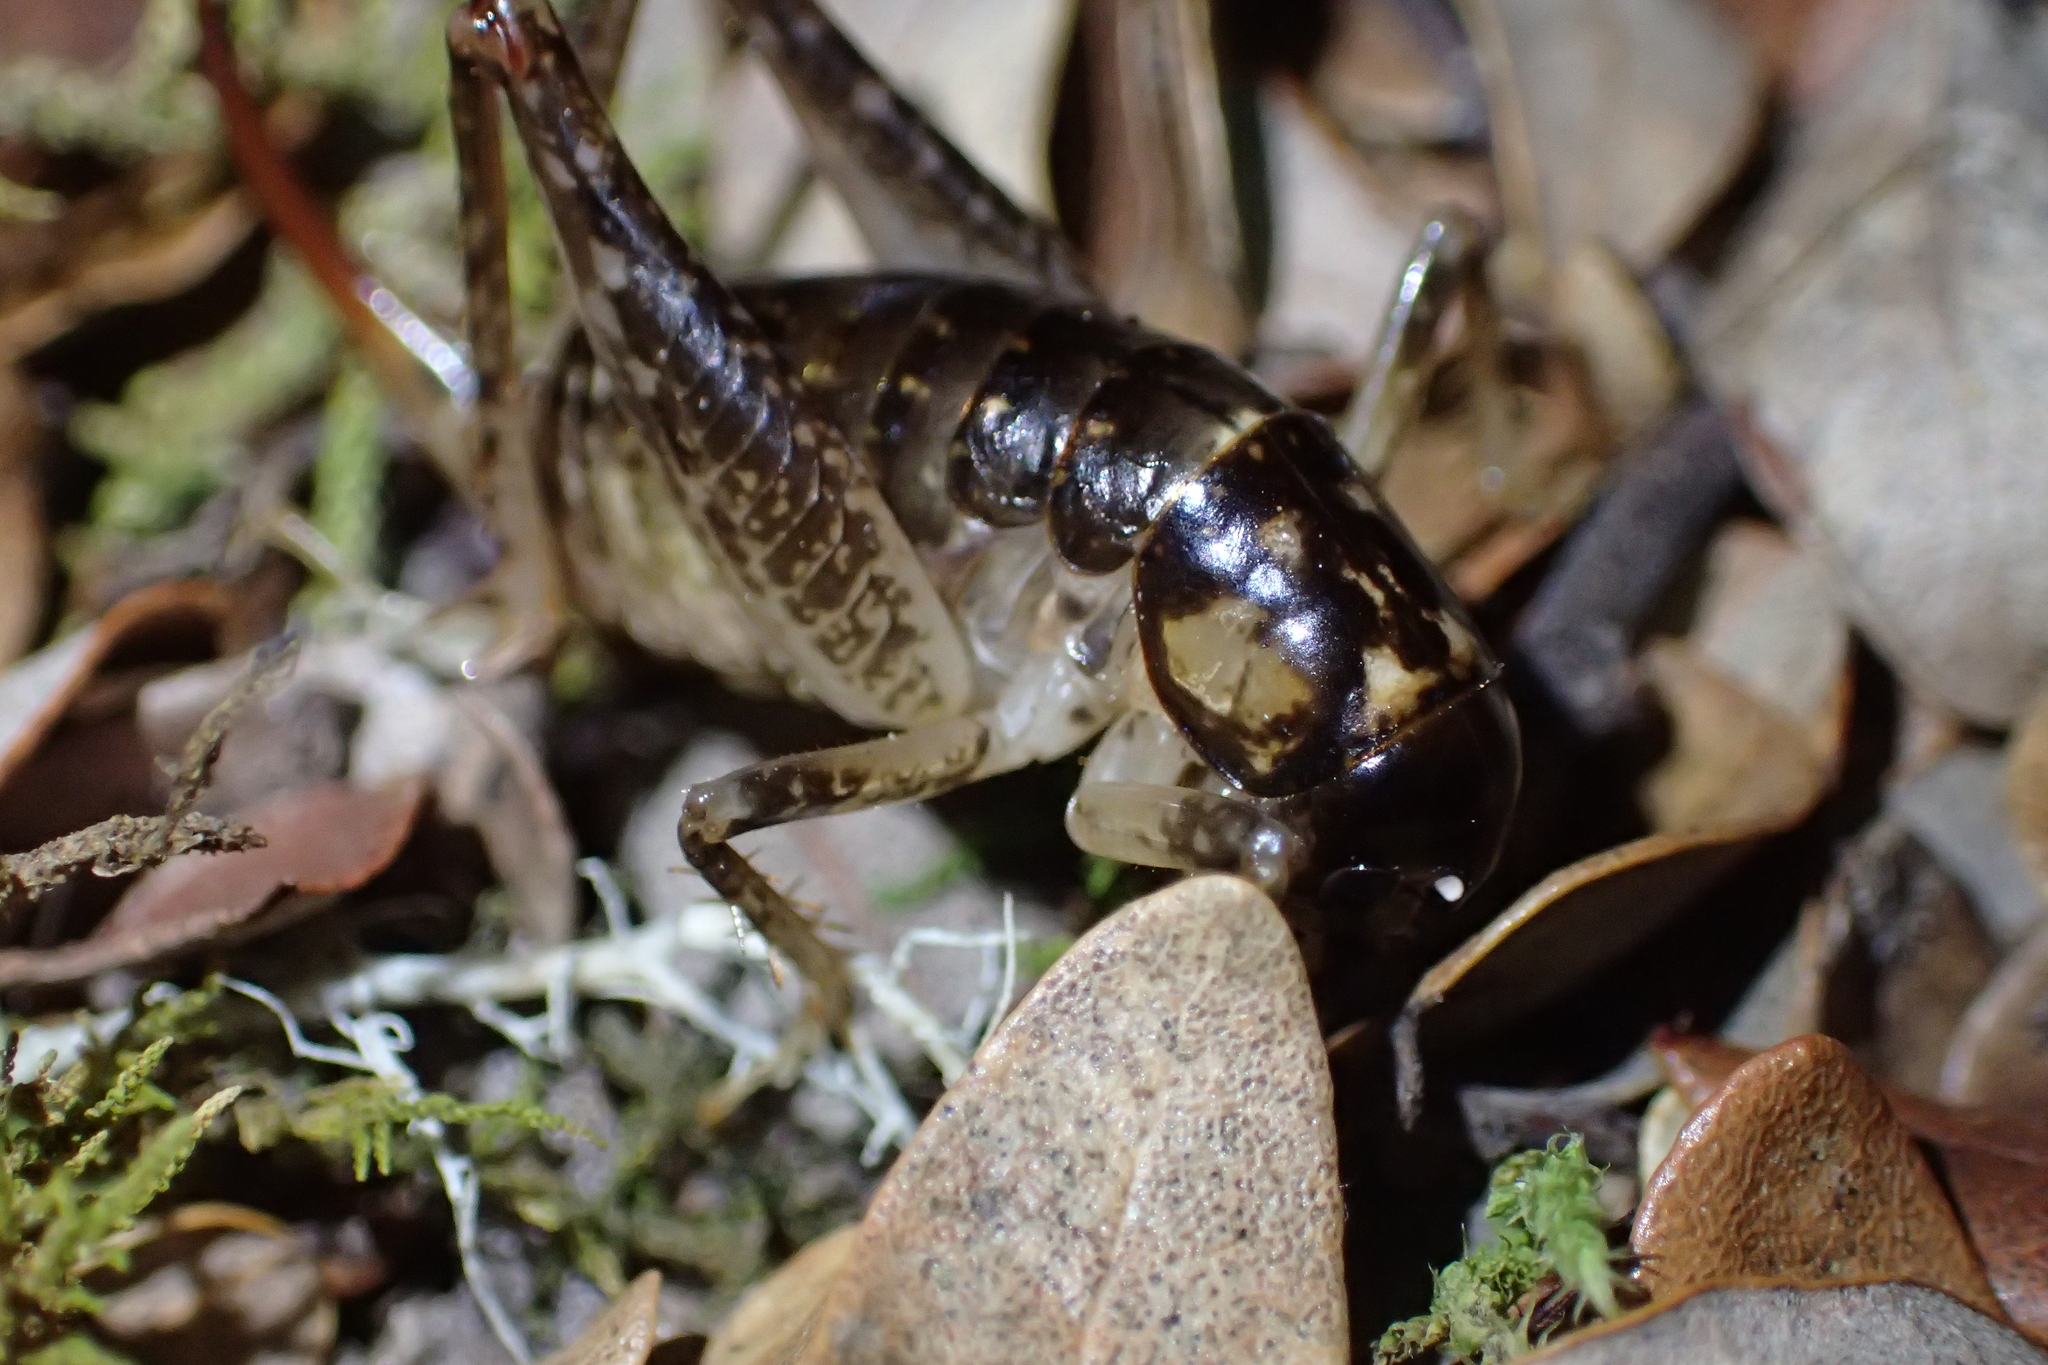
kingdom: Animalia
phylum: Arthropoda
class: Insecta
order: Orthoptera
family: Anostostomatidae
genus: Hemiandrus
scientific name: Hemiandrus luna
